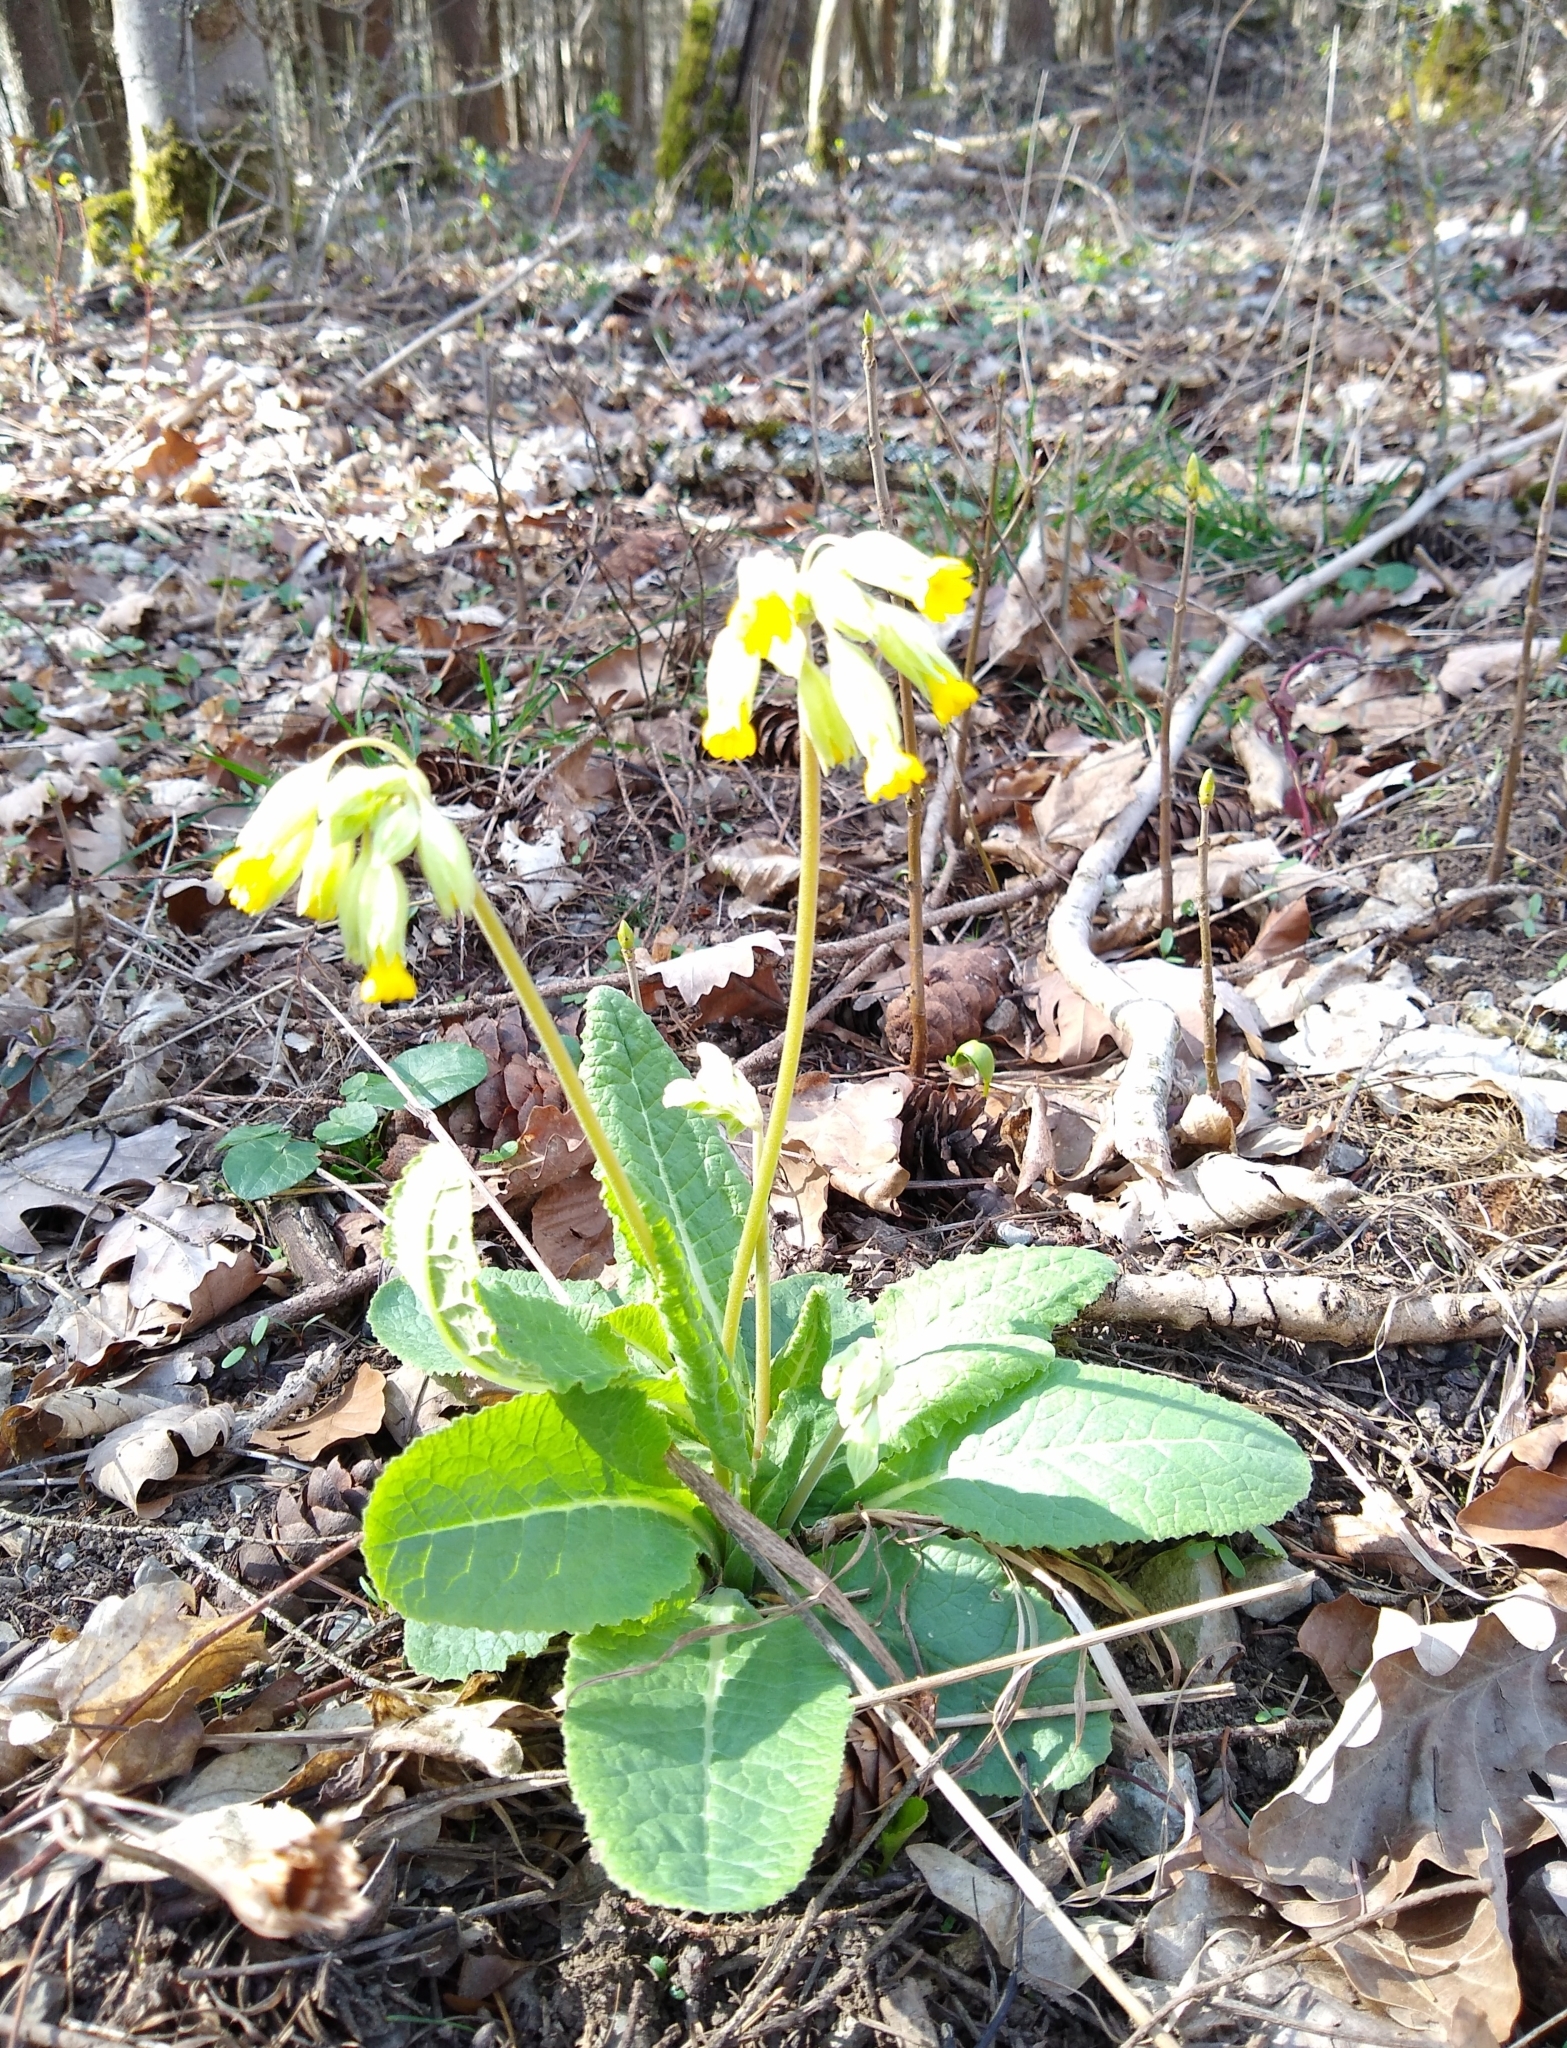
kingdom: Plantae
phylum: Tracheophyta
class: Magnoliopsida
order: Ericales
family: Primulaceae
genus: Primula
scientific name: Primula veris
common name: Cowslip
